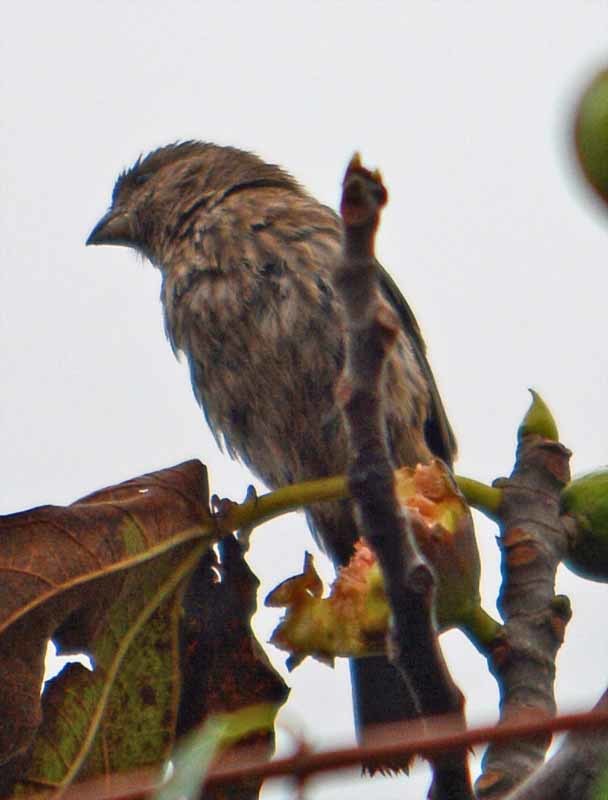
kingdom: Animalia
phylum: Chordata
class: Aves
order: Passeriformes
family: Fringillidae
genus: Haemorhous
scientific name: Haemorhous mexicanus
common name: House finch
